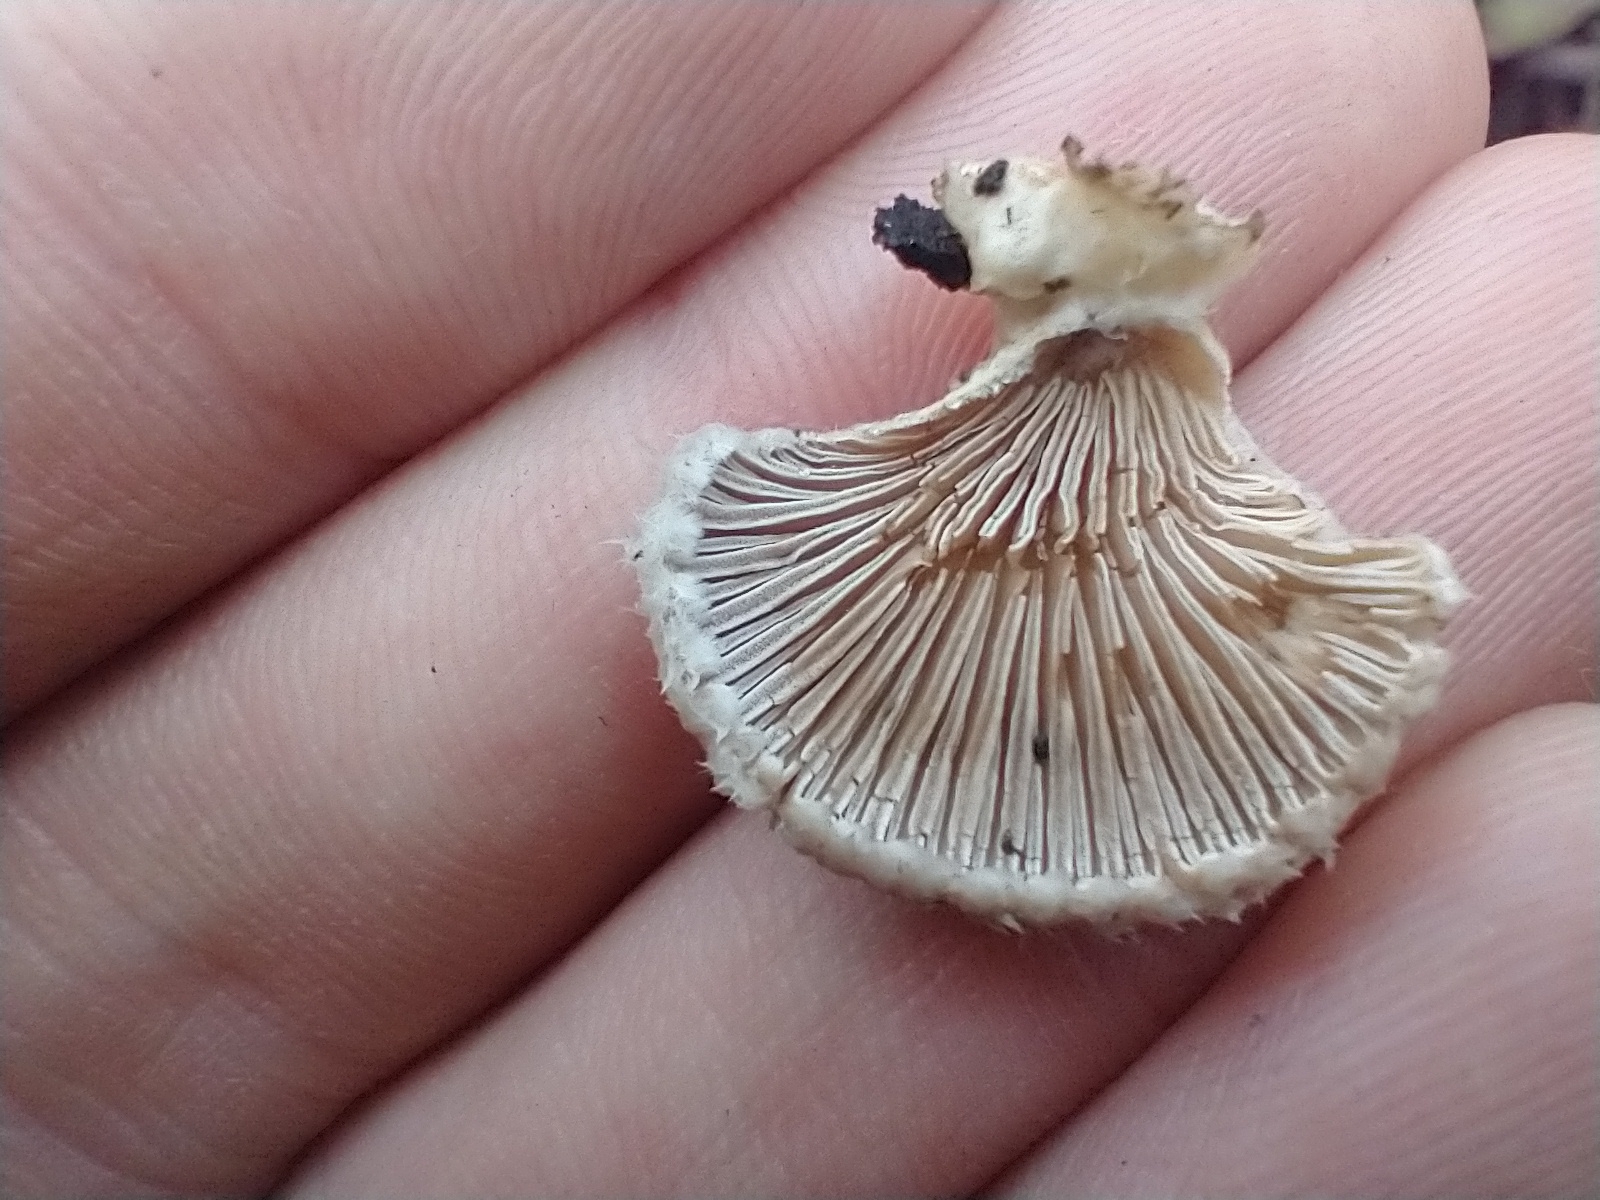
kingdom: Fungi
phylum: Basidiomycota
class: Agaricomycetes
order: Agaricales
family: Schizophyllaceae
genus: Schizophyllum
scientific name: Schizophyllum commune
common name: Common porecrust
